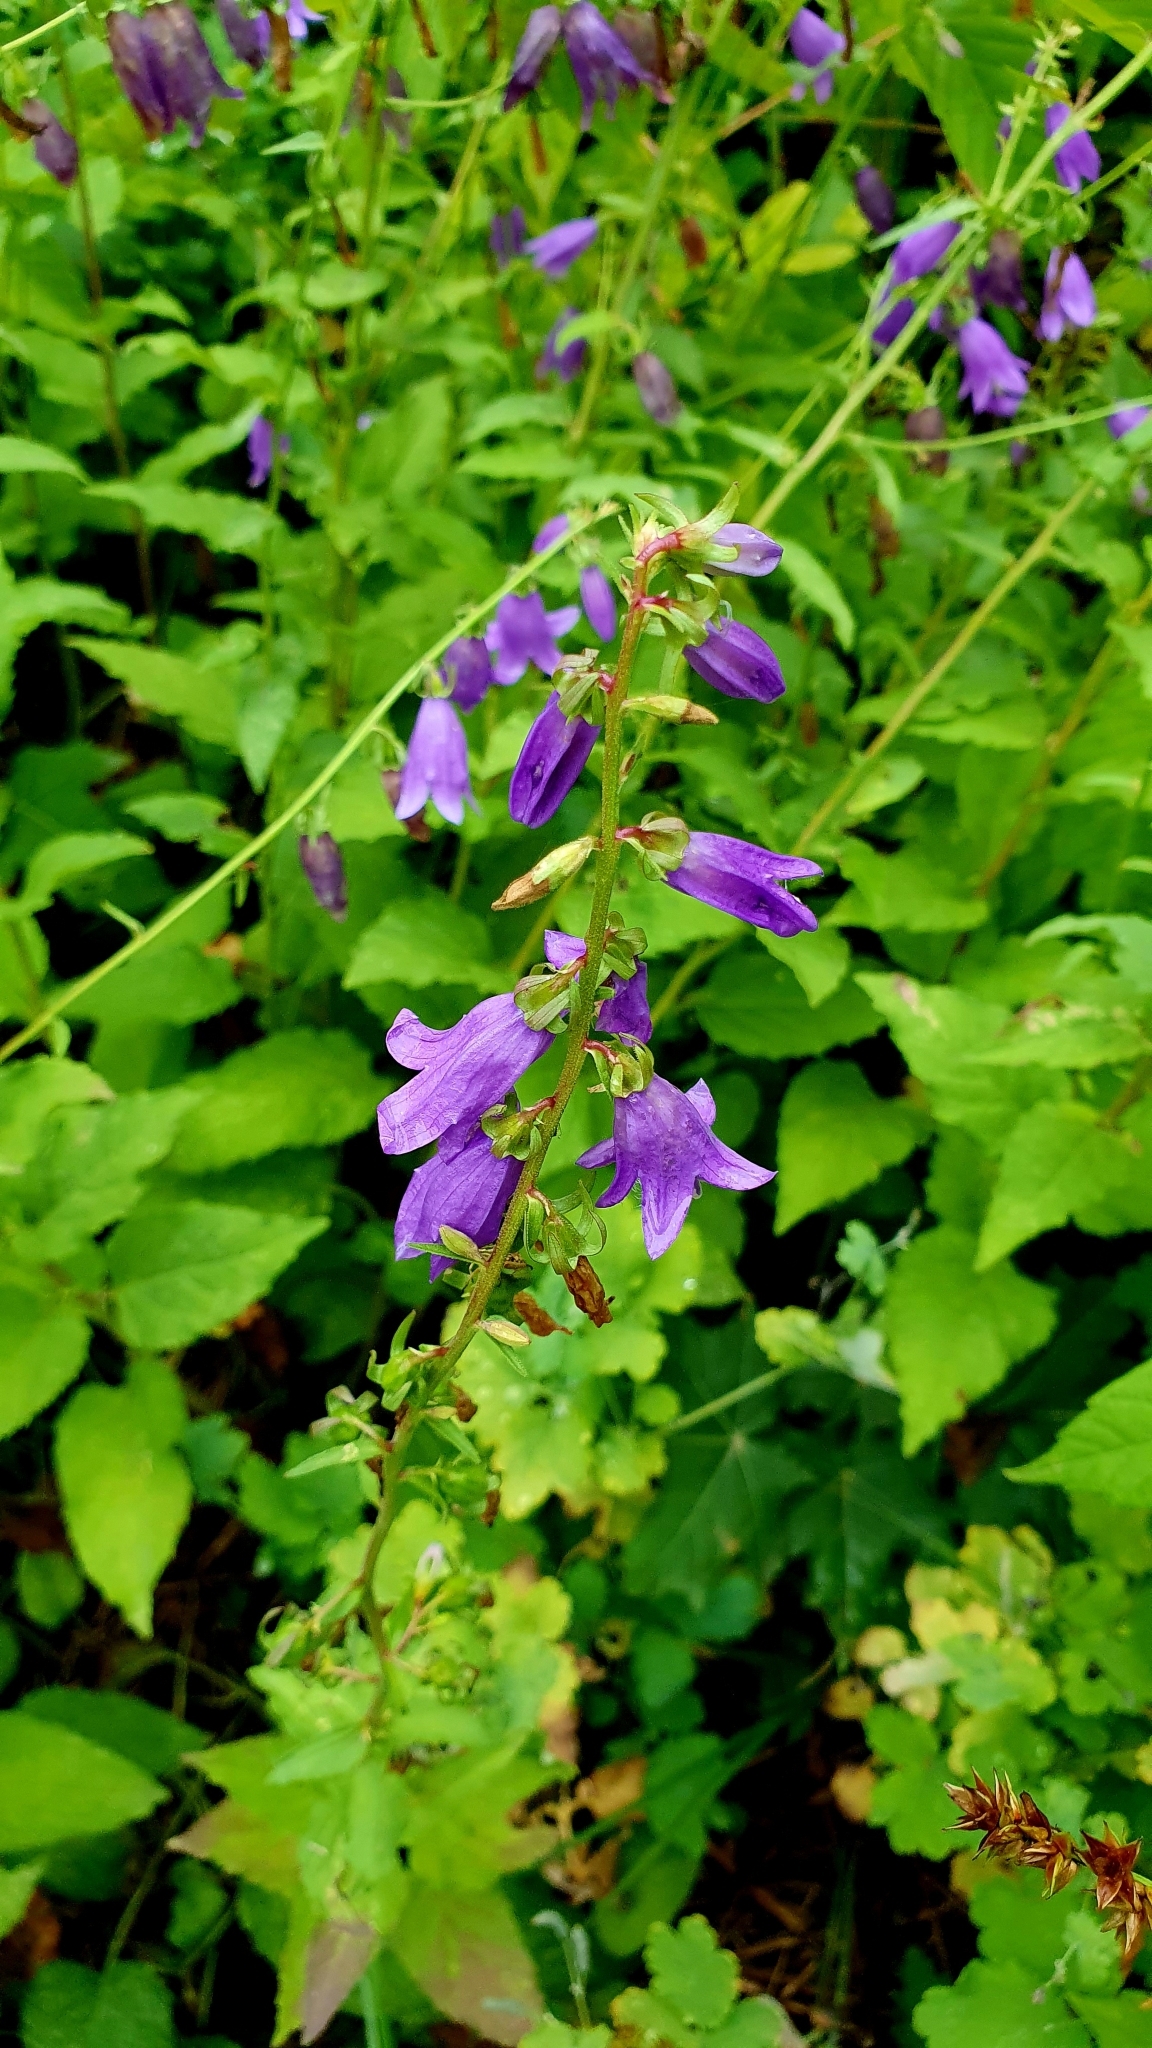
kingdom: Plantae
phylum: Tracheophyta
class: Magnoliopsida
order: Asterales
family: Campanulaceae
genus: Campanula
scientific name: Campanula rapunculoides
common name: Creeping bellflower
